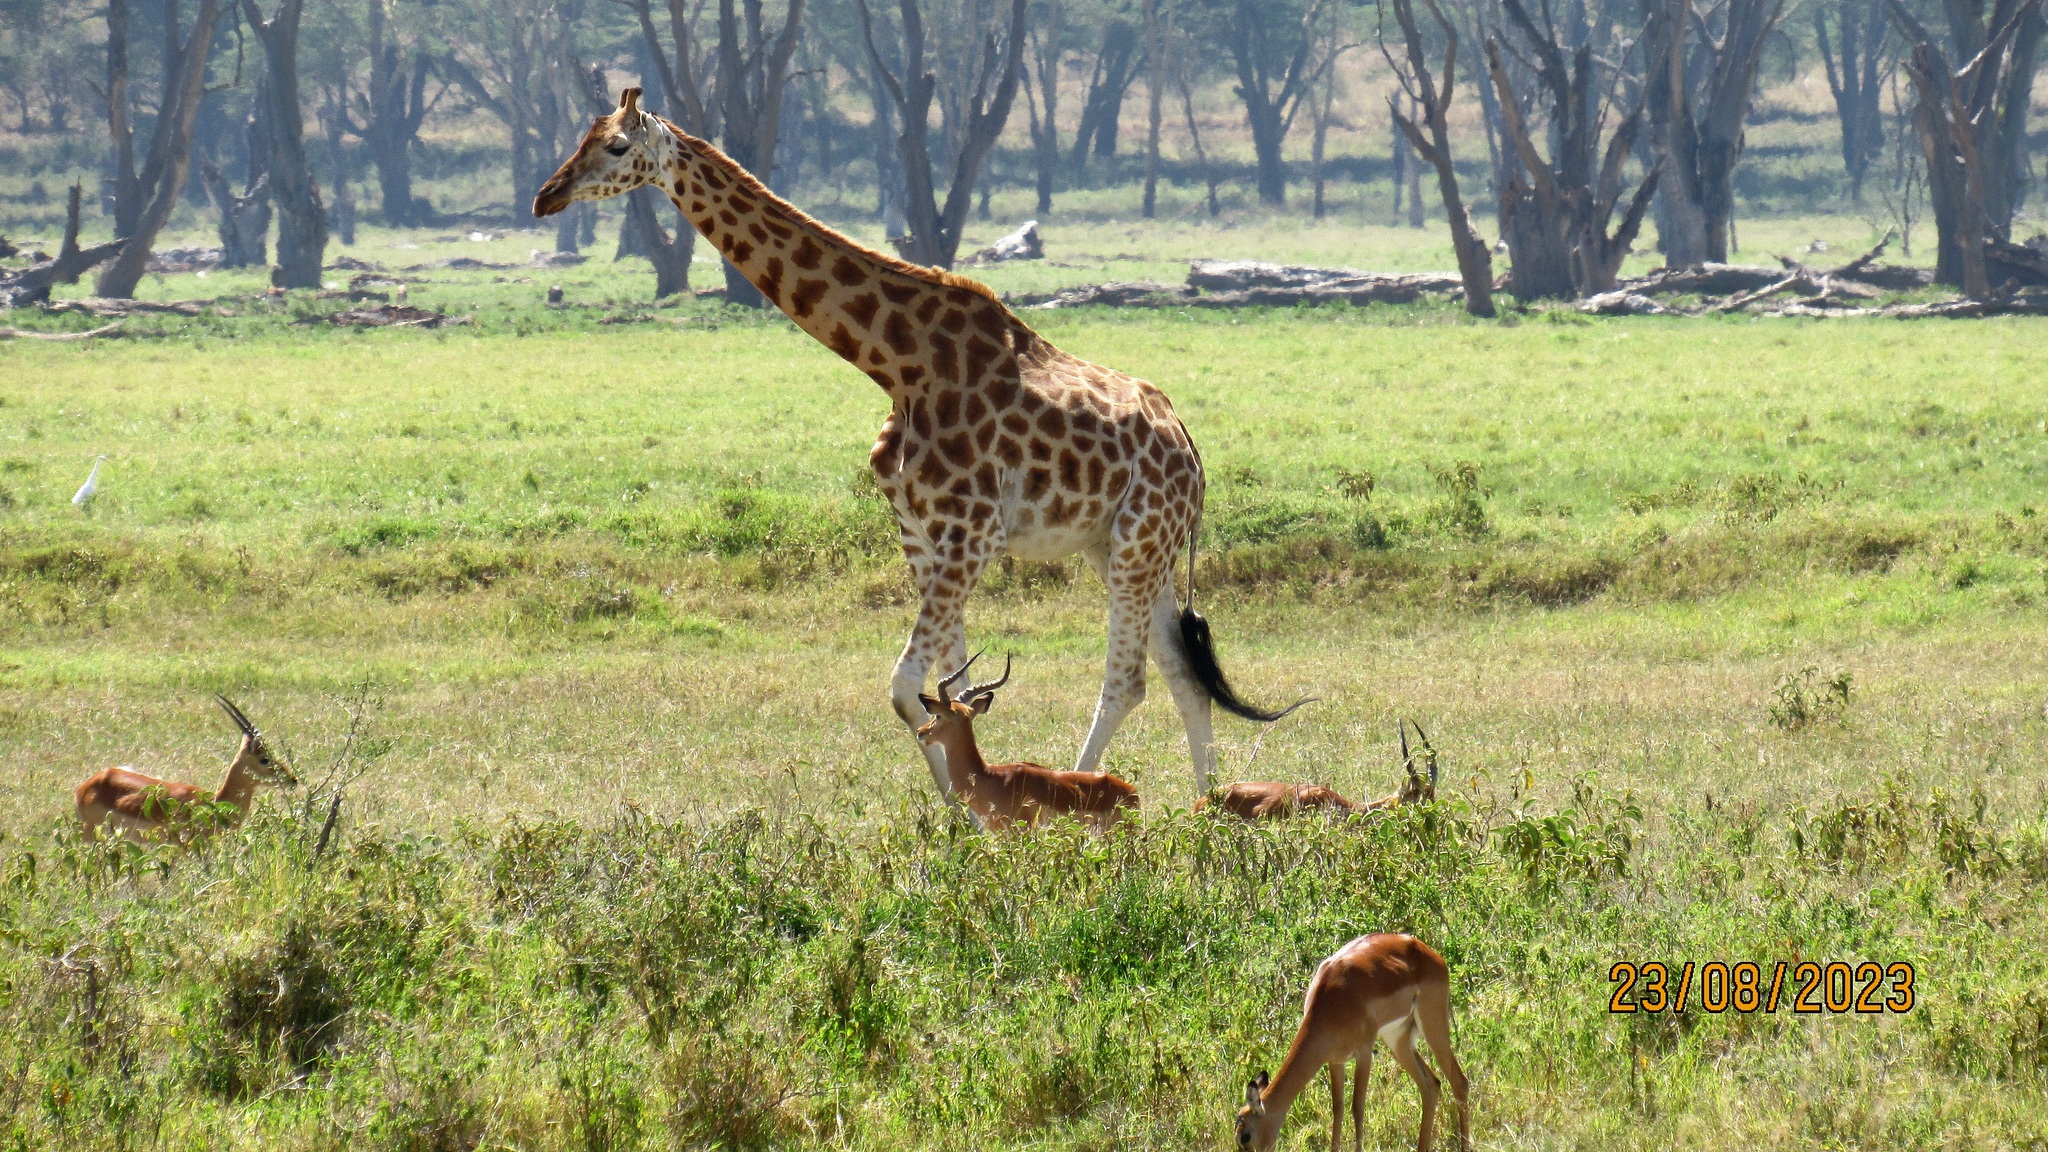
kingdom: Animalia
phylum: Chordata
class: Mammalia
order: Artiodactyla
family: Giraffidae
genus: Giraffa
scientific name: Giraffa camelopardalis
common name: Giraffe
